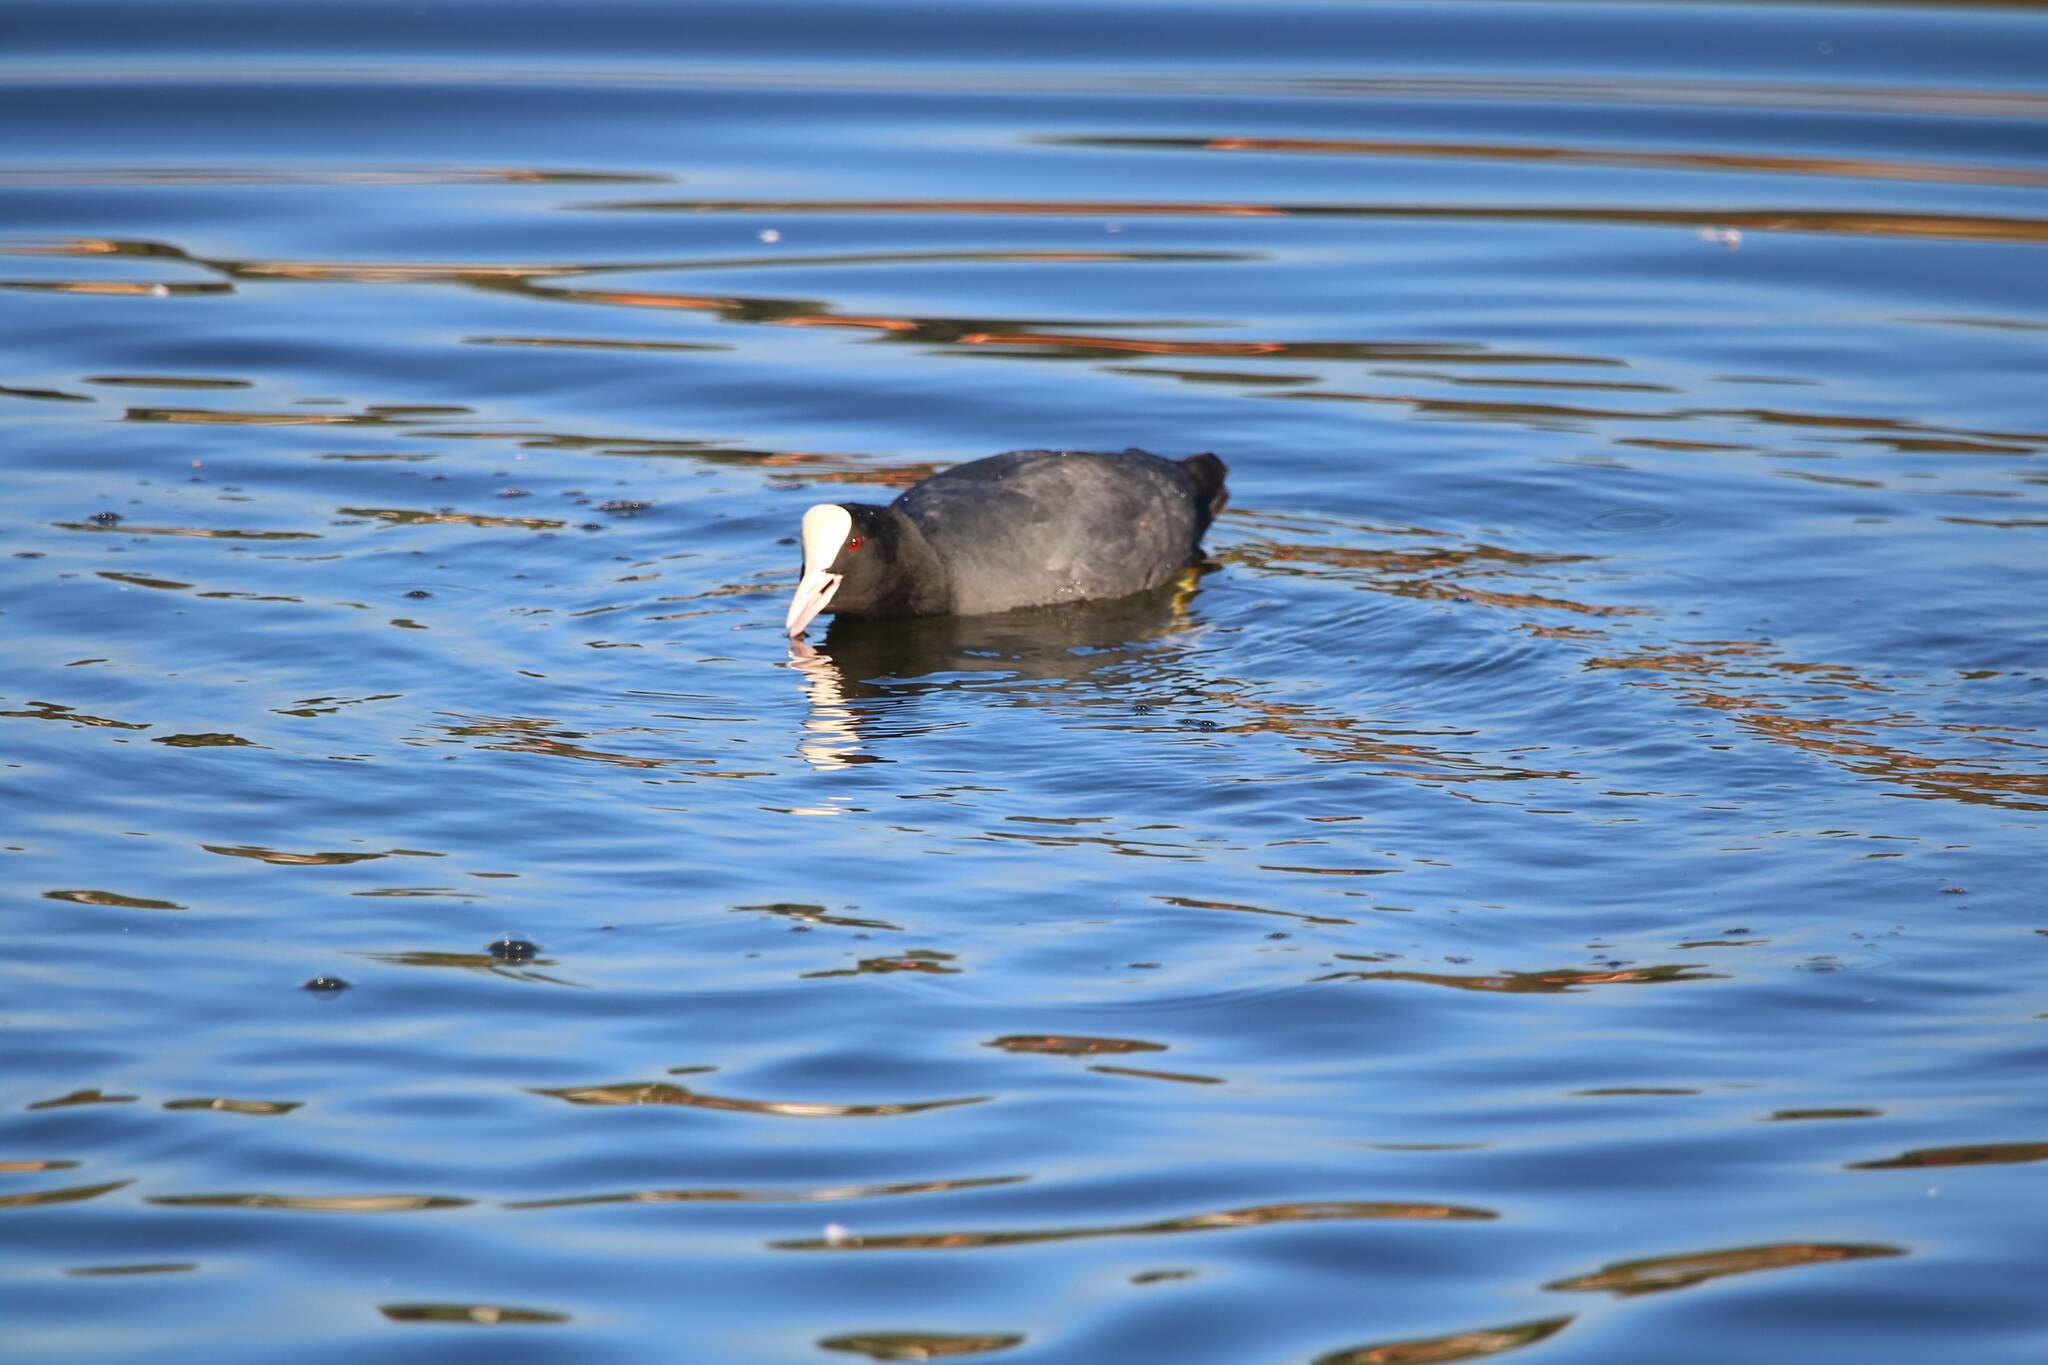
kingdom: Animalia
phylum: Chordata
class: Aves
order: Gruiformes
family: Rallidae
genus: Fulica
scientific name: Fulica atra
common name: Eurasian coot
